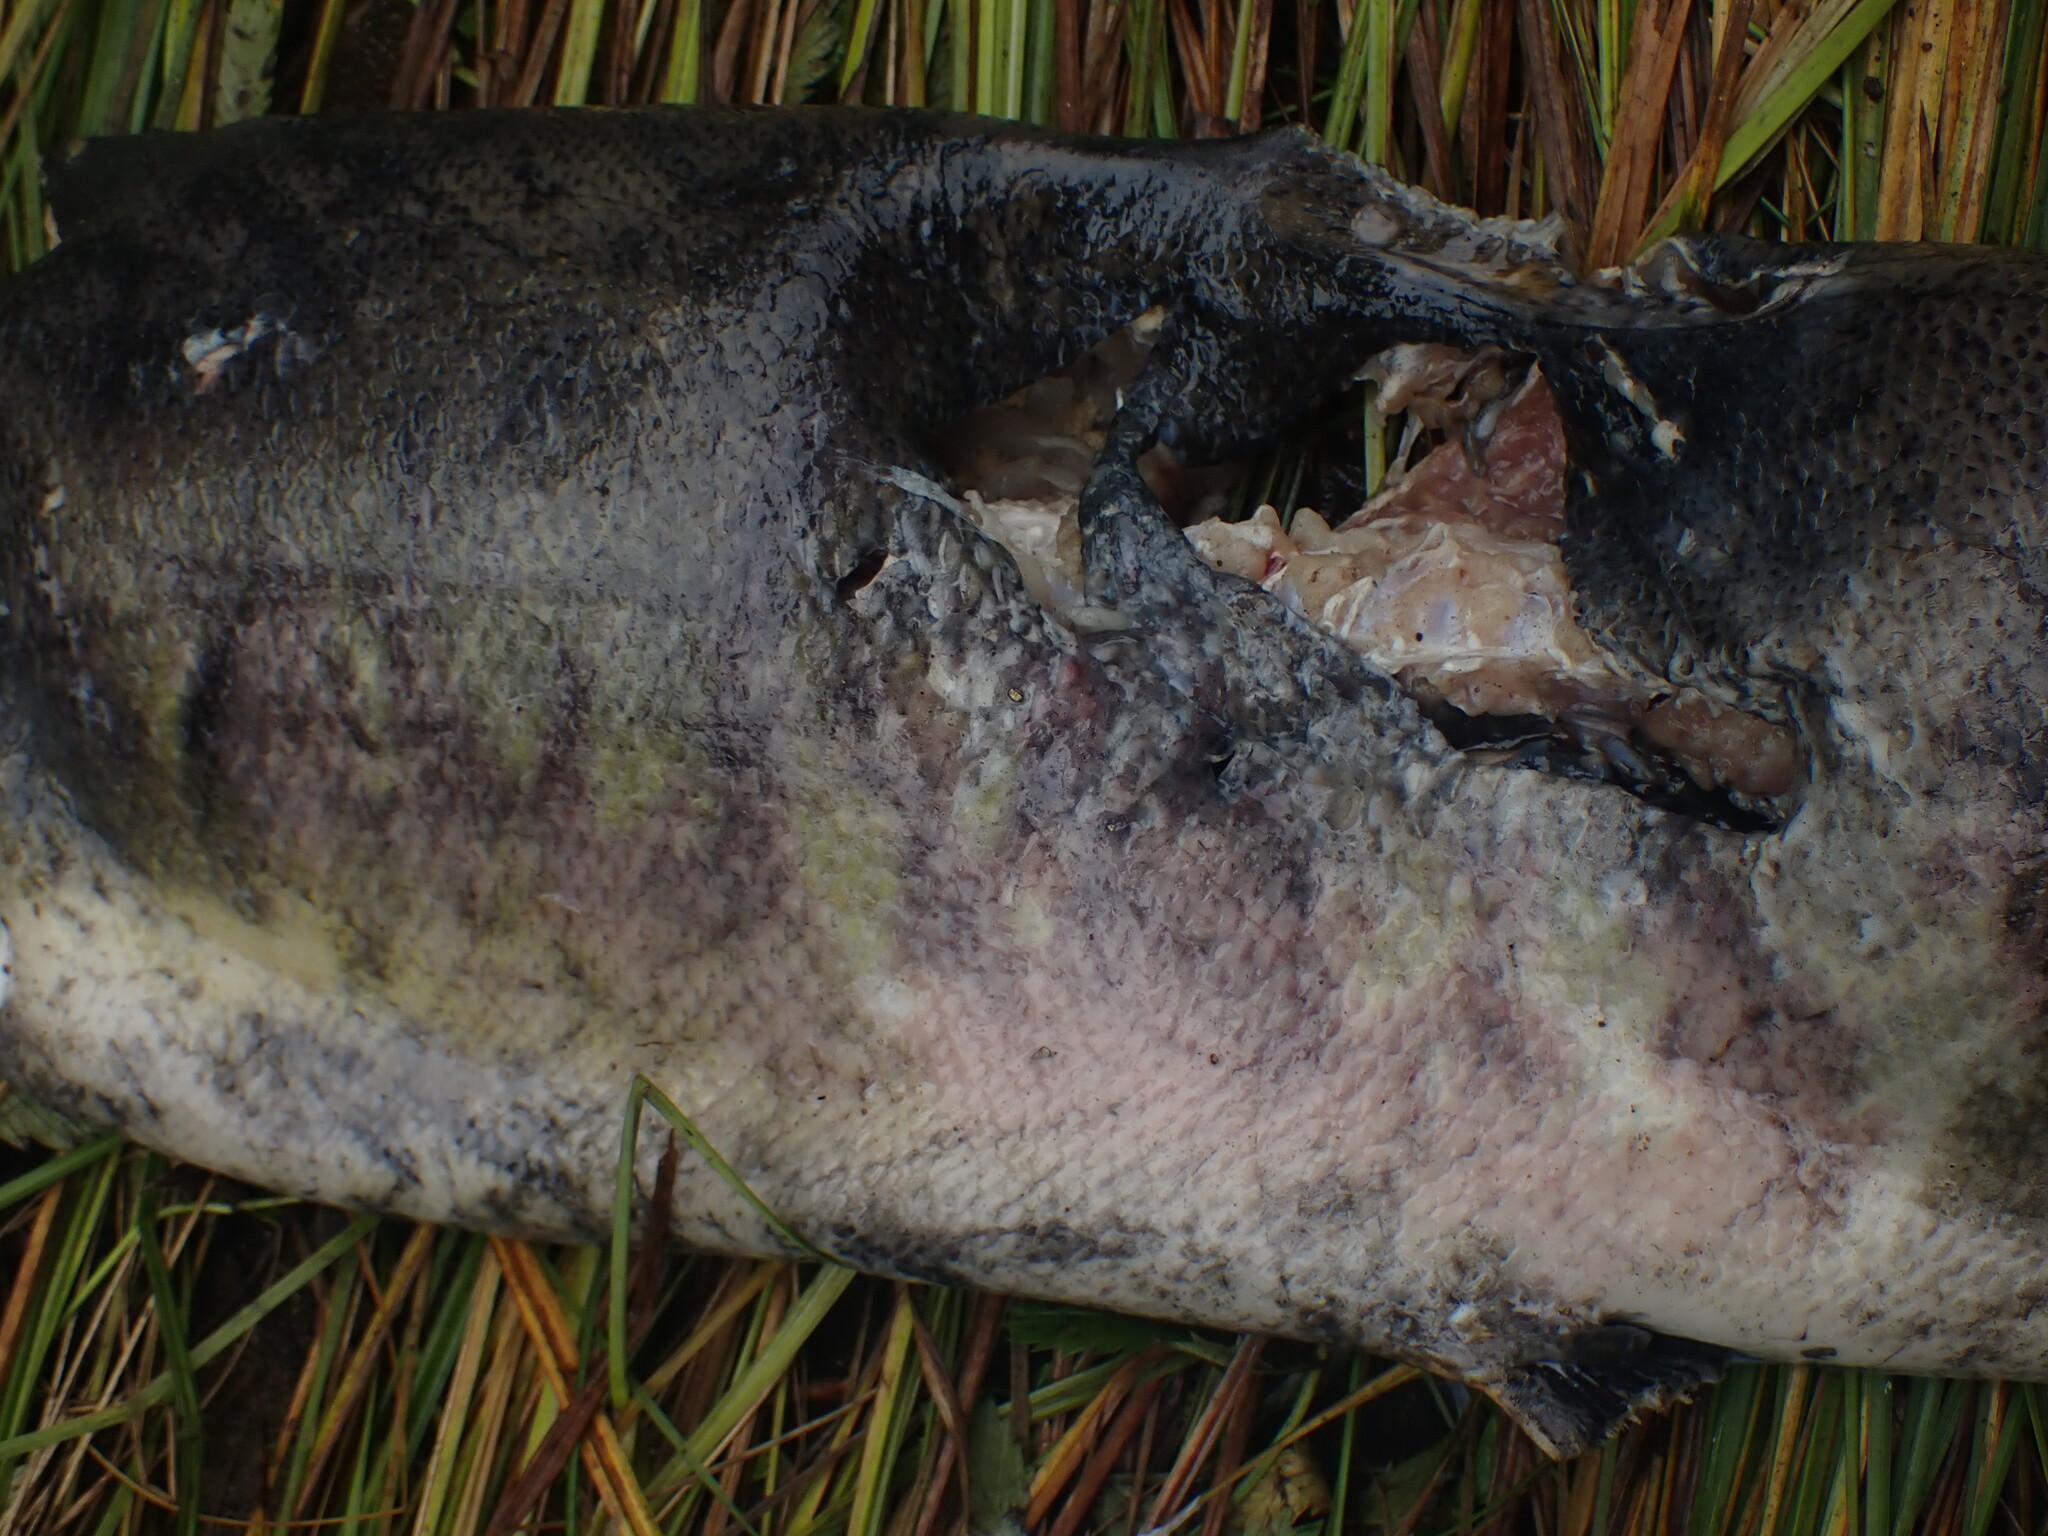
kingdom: Animalia
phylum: Chordata
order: Salmoniformes
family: Salmonidae
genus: Oncorhynchus
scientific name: Oncorhynchus keta
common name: Chum salmon
